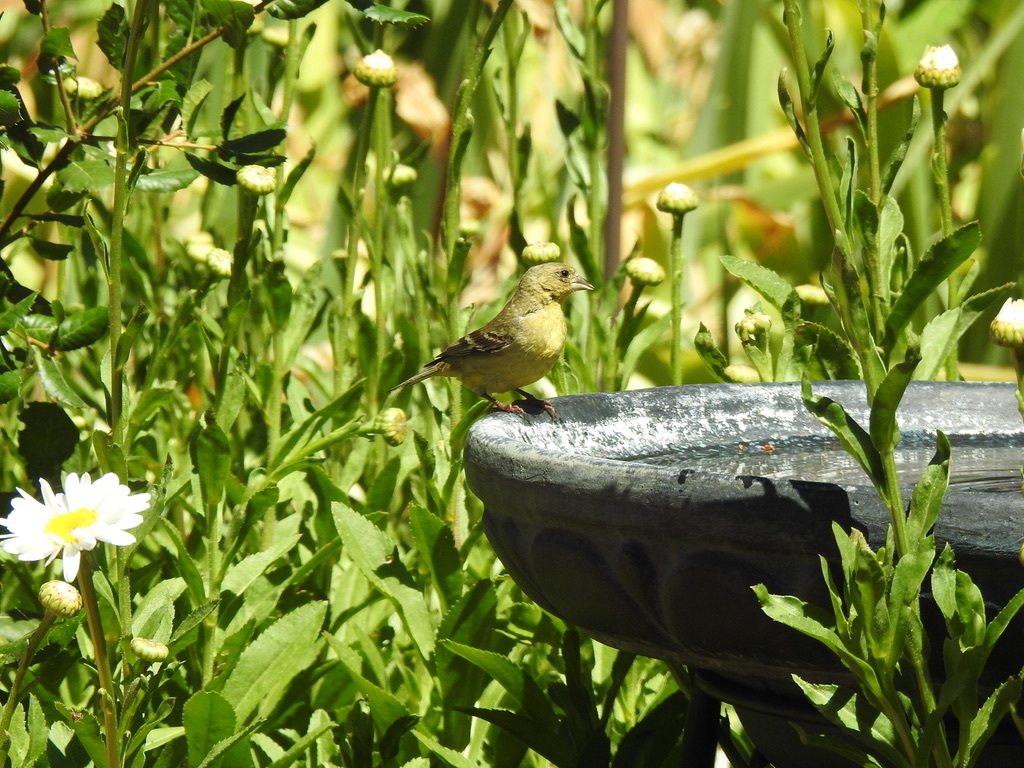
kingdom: Animalia
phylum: Chordata
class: Aves
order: Passeriformes
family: Fringillidae
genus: Spinus
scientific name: Spinus psaltria
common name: Lesser goldfinch
